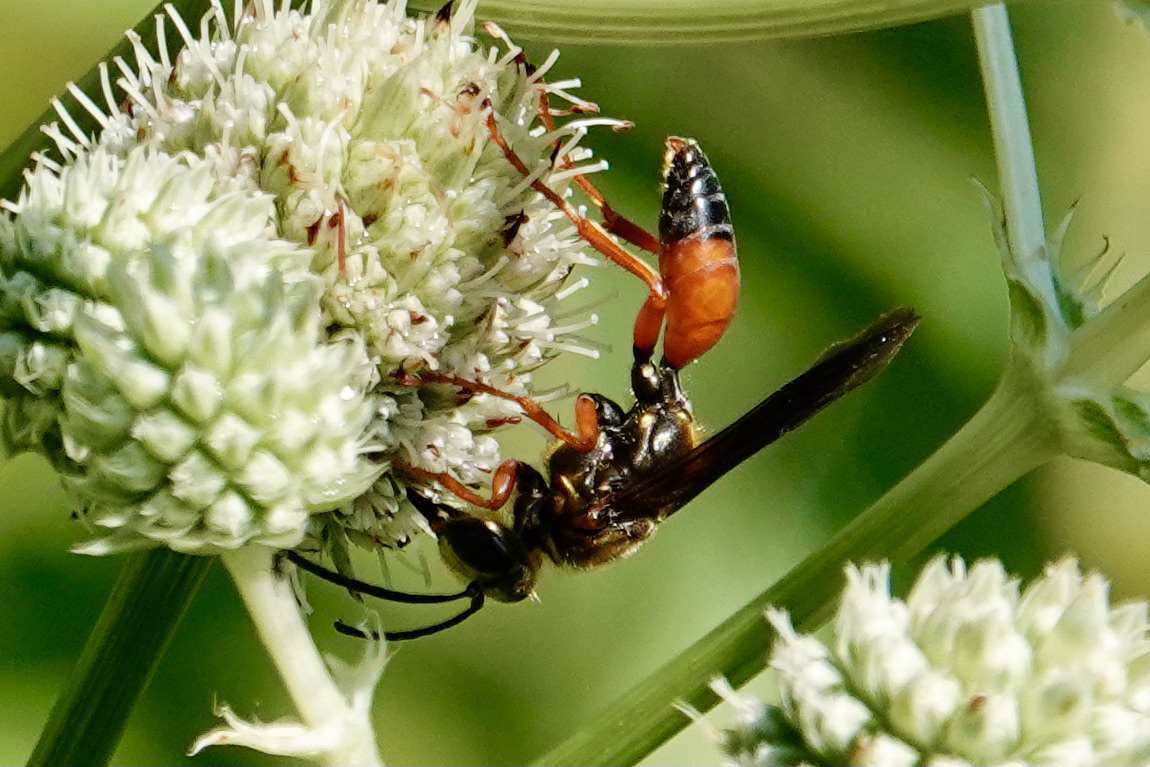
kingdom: Animalia
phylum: Arthropoda
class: Insecta
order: Hymenoptera
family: Sphecidae
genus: Sphex
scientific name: Sphex ichneumoneus
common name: Great golden digger wasp
